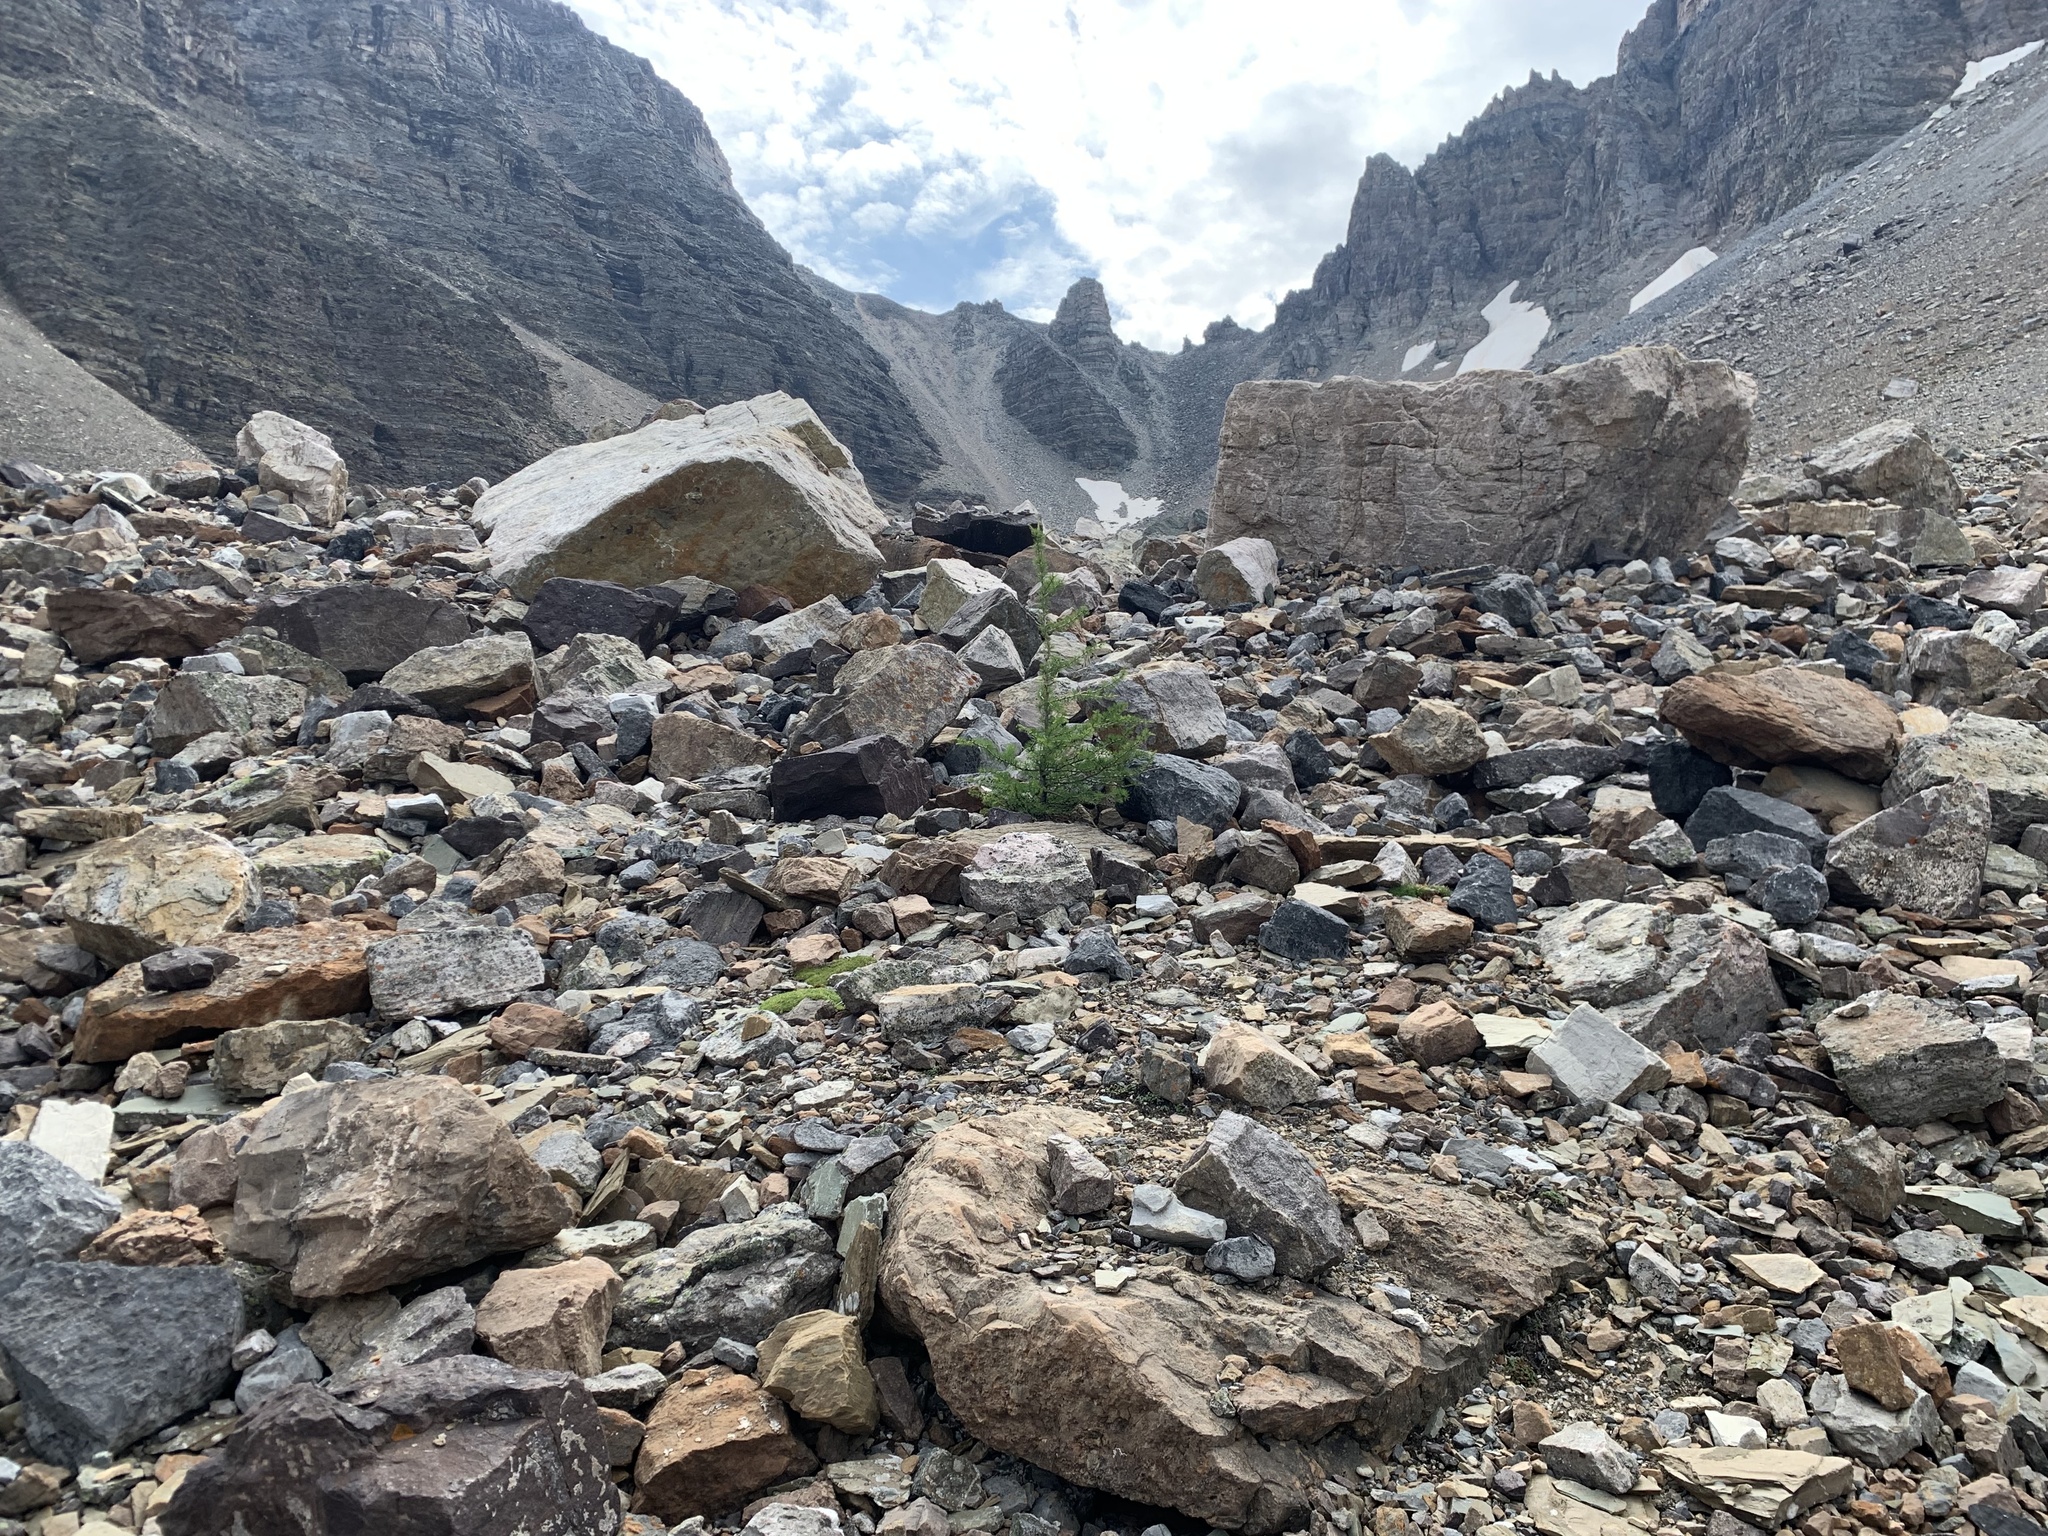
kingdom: Plantae
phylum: Tracheophyta
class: Pinopsida
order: Pinales
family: Pinaceae
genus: Larix
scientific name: Larix lyallii
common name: Alpine larch
